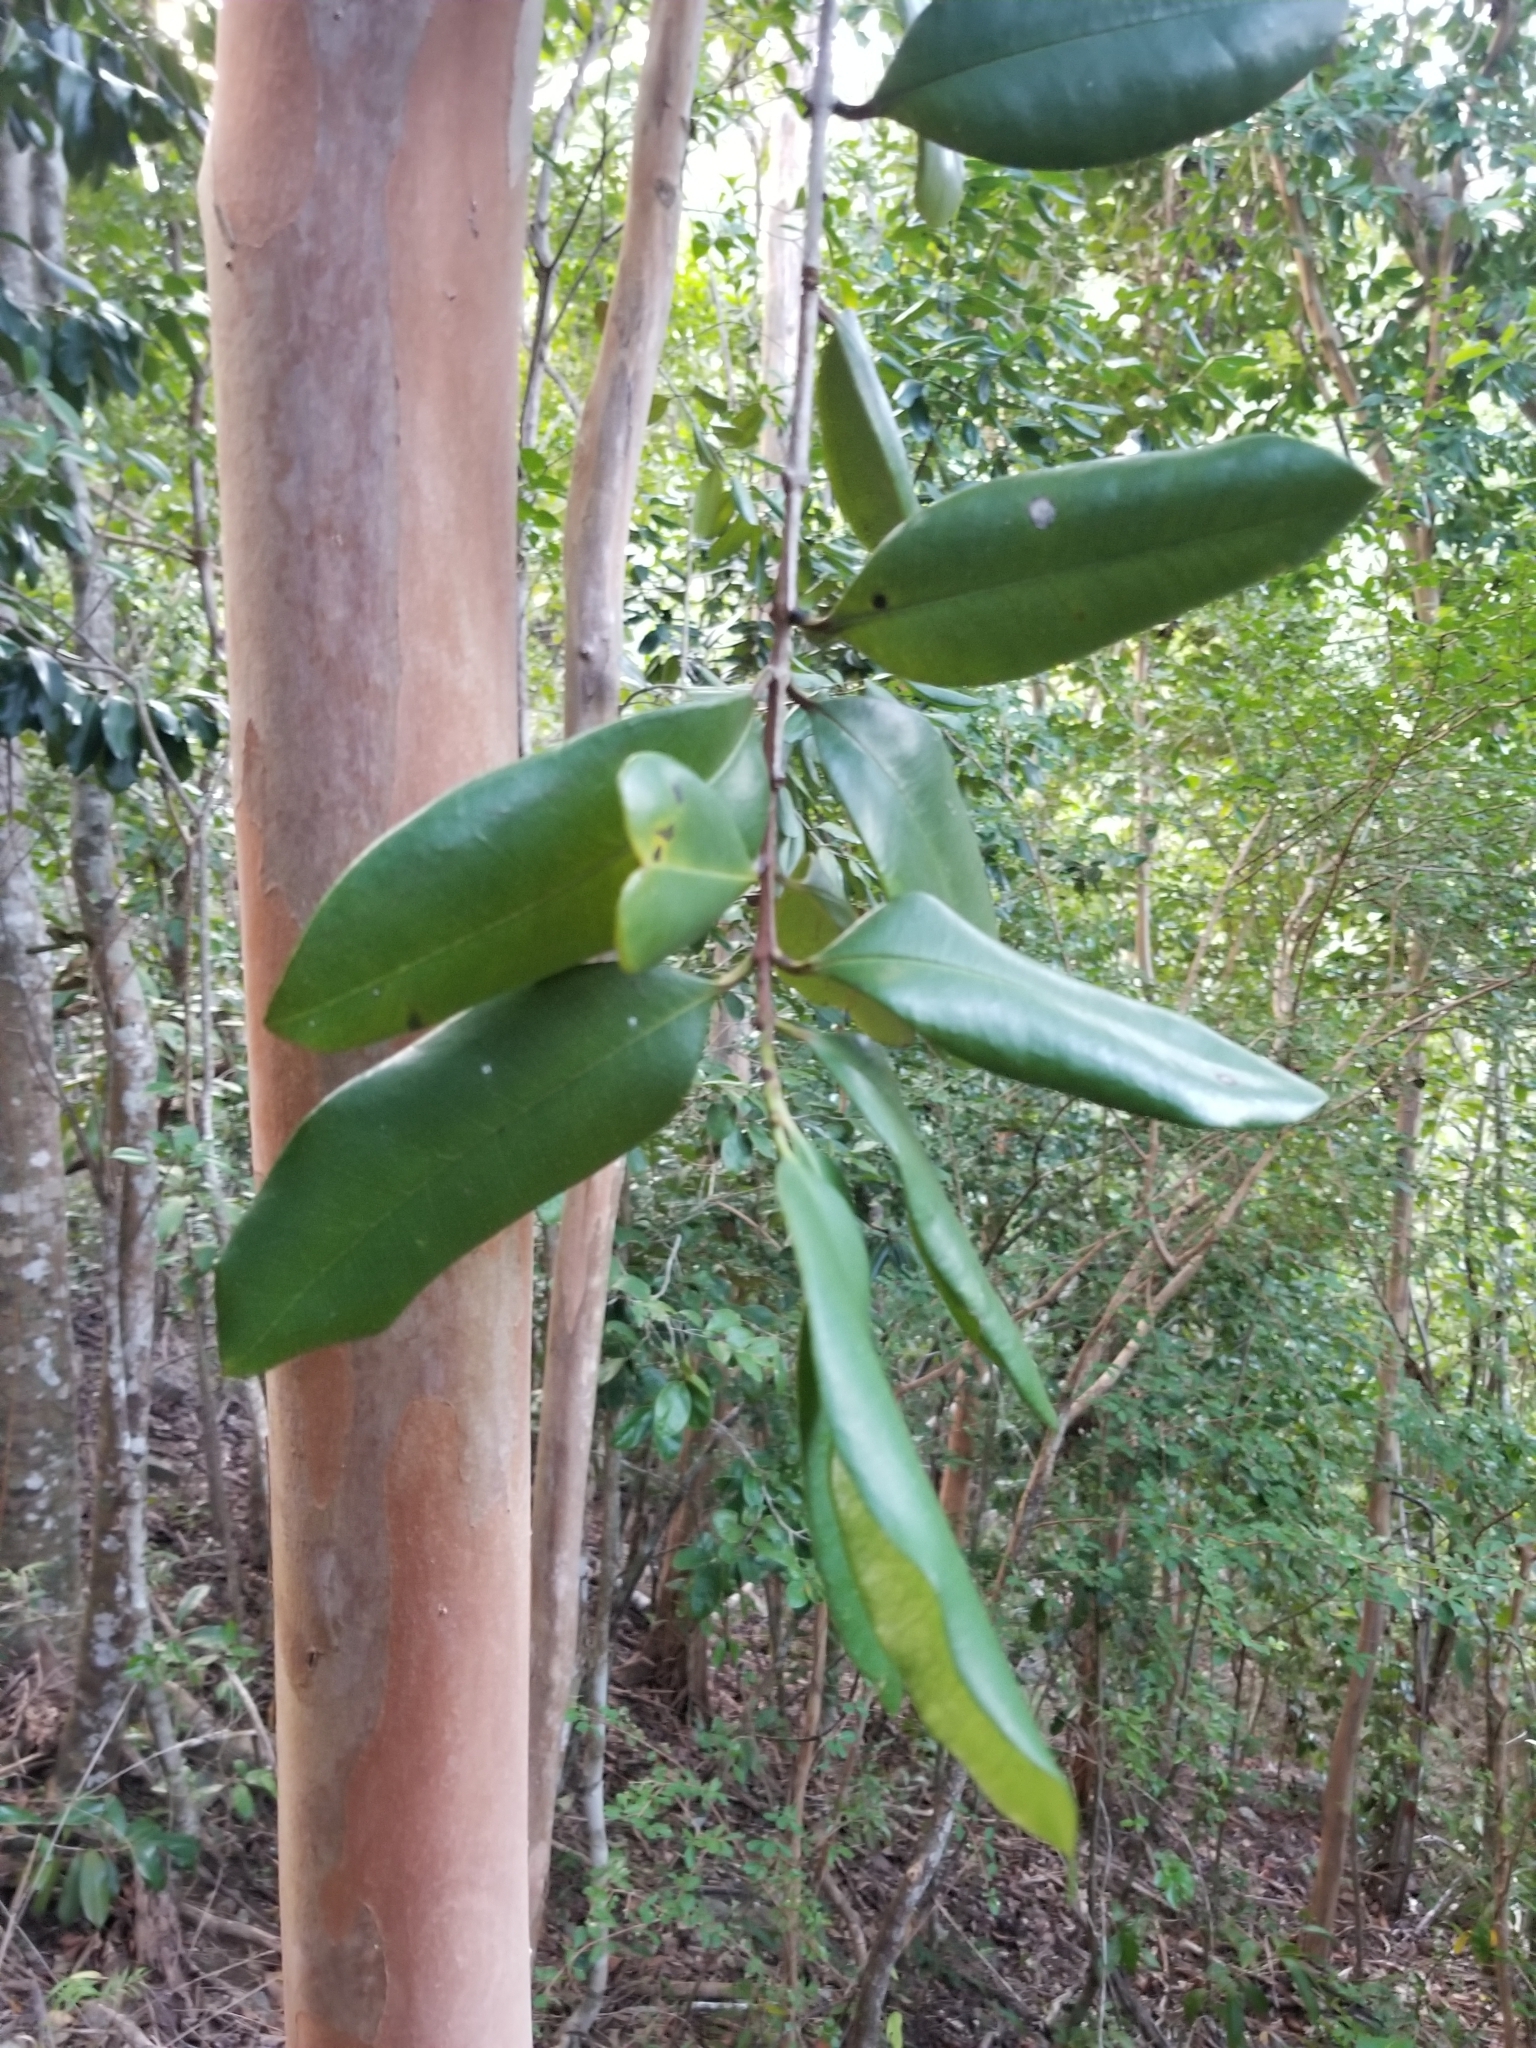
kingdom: Plantae
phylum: Tracheophyta
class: Magnoliopsida
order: Myrtales
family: Myrtaceae
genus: Pimenta
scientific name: Pimenta racemosa
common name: Bay rum tree
